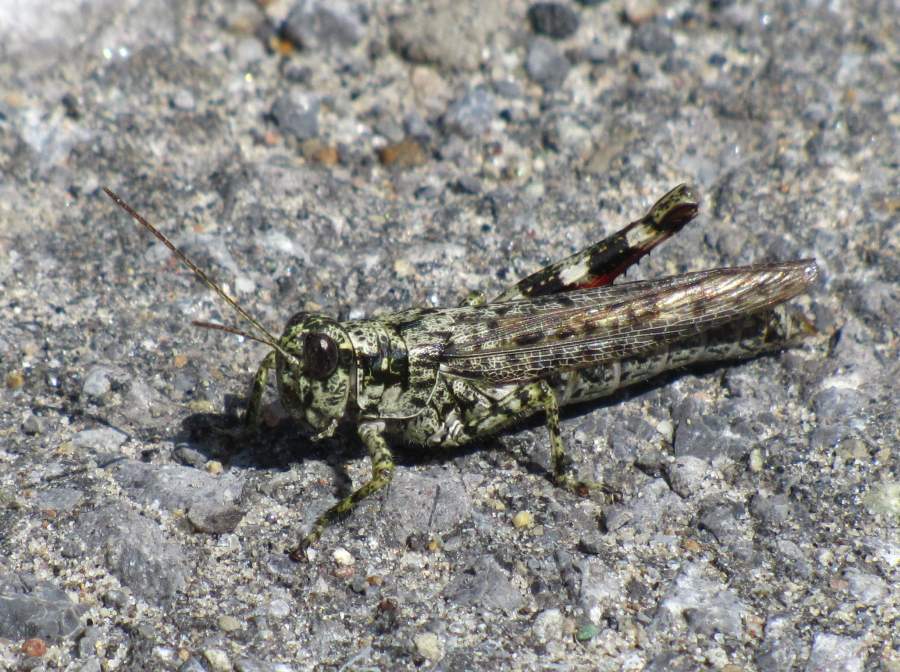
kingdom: Animalia
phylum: Arthropoda
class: Insecta
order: Orthoptera
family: Acrididae
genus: Melanoplus
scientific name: Melanoplus punctulatus
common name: Pine-tree spur-throat grasshopper
